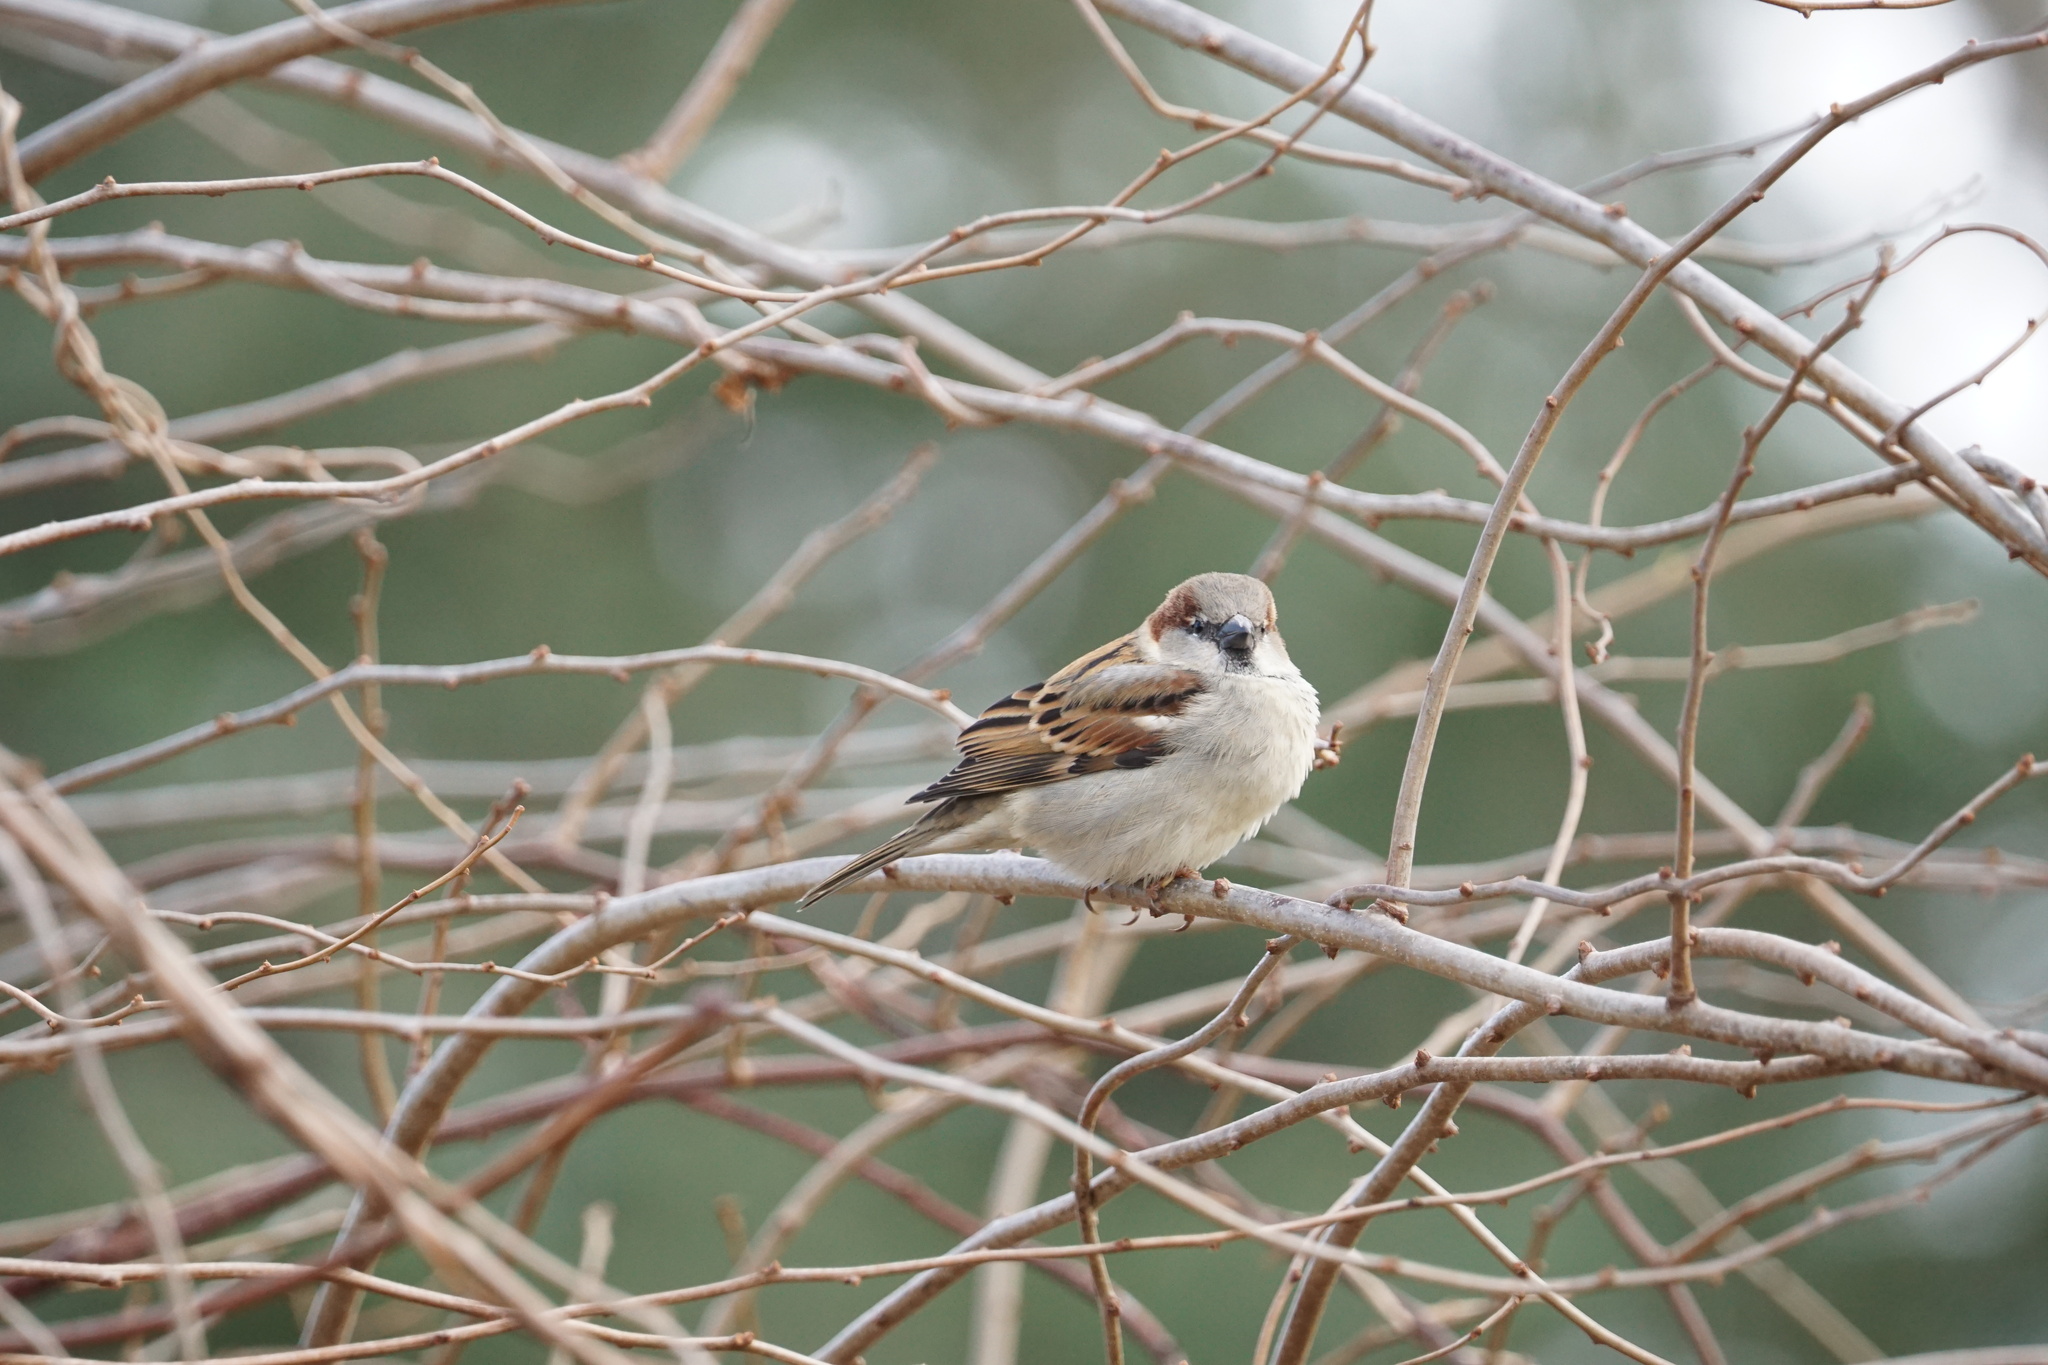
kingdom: Animalia
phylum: Chordata
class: Aves
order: Passeriformes
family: Passeridae
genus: Passer
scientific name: Passer domesticus
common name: House sparrow
